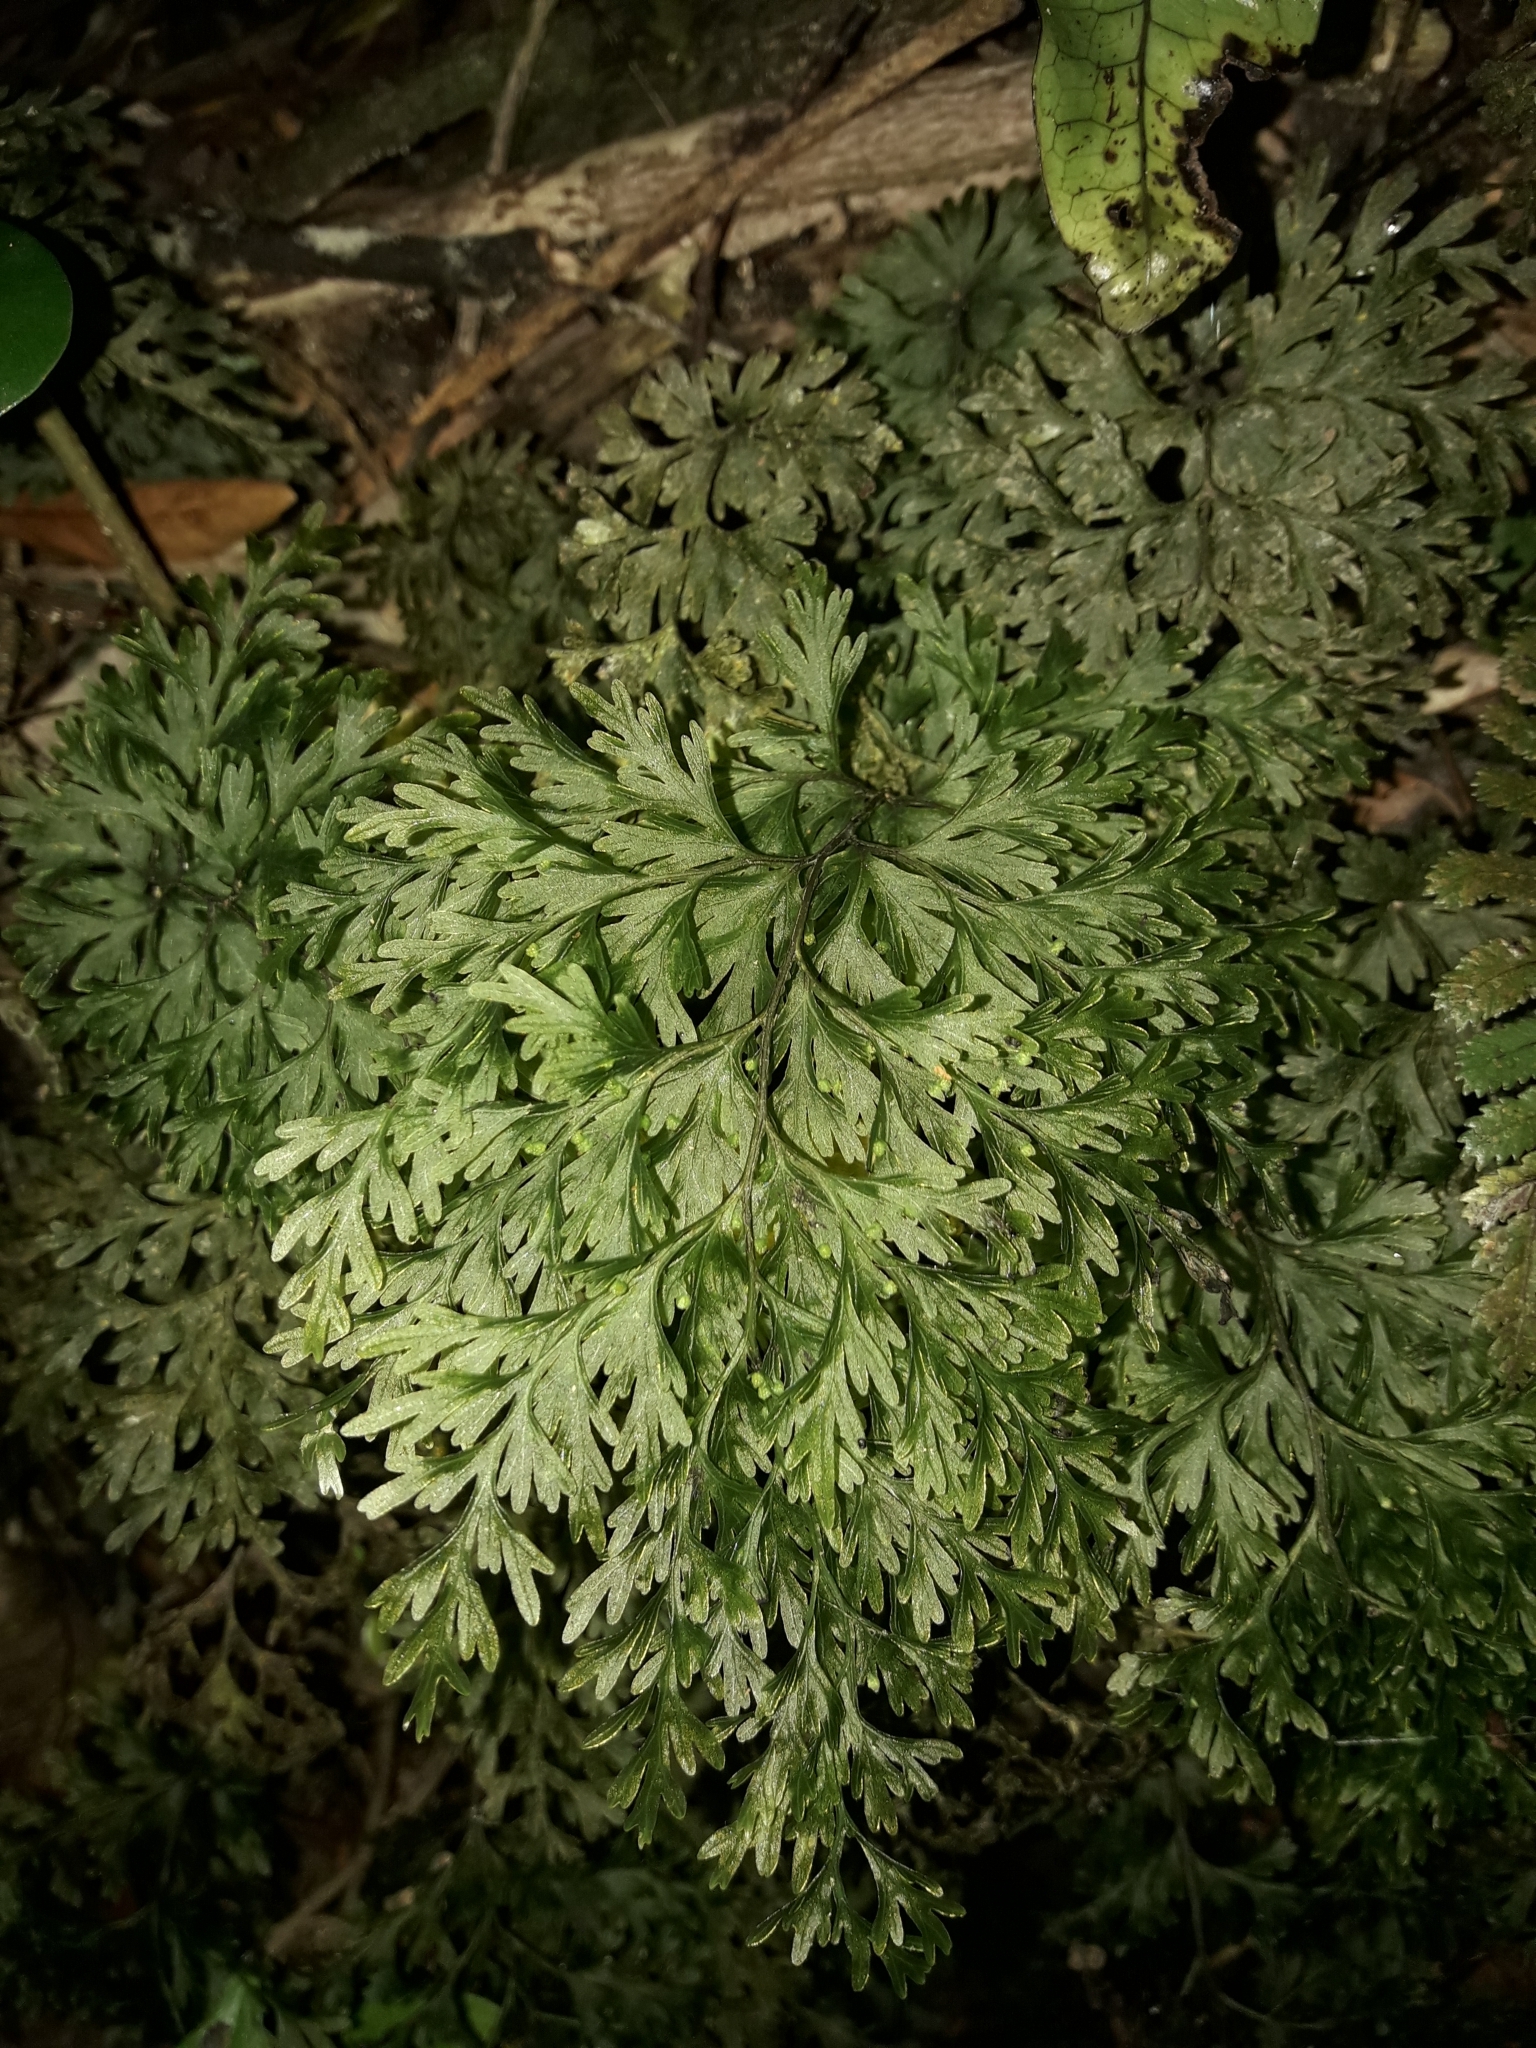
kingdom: Plantae
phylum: Tracheophyta
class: Polypodiopsida
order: Hymenophyllales
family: Hymenophyllaceae
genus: Hymenophyllum
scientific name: Hymenophyllum demissum
